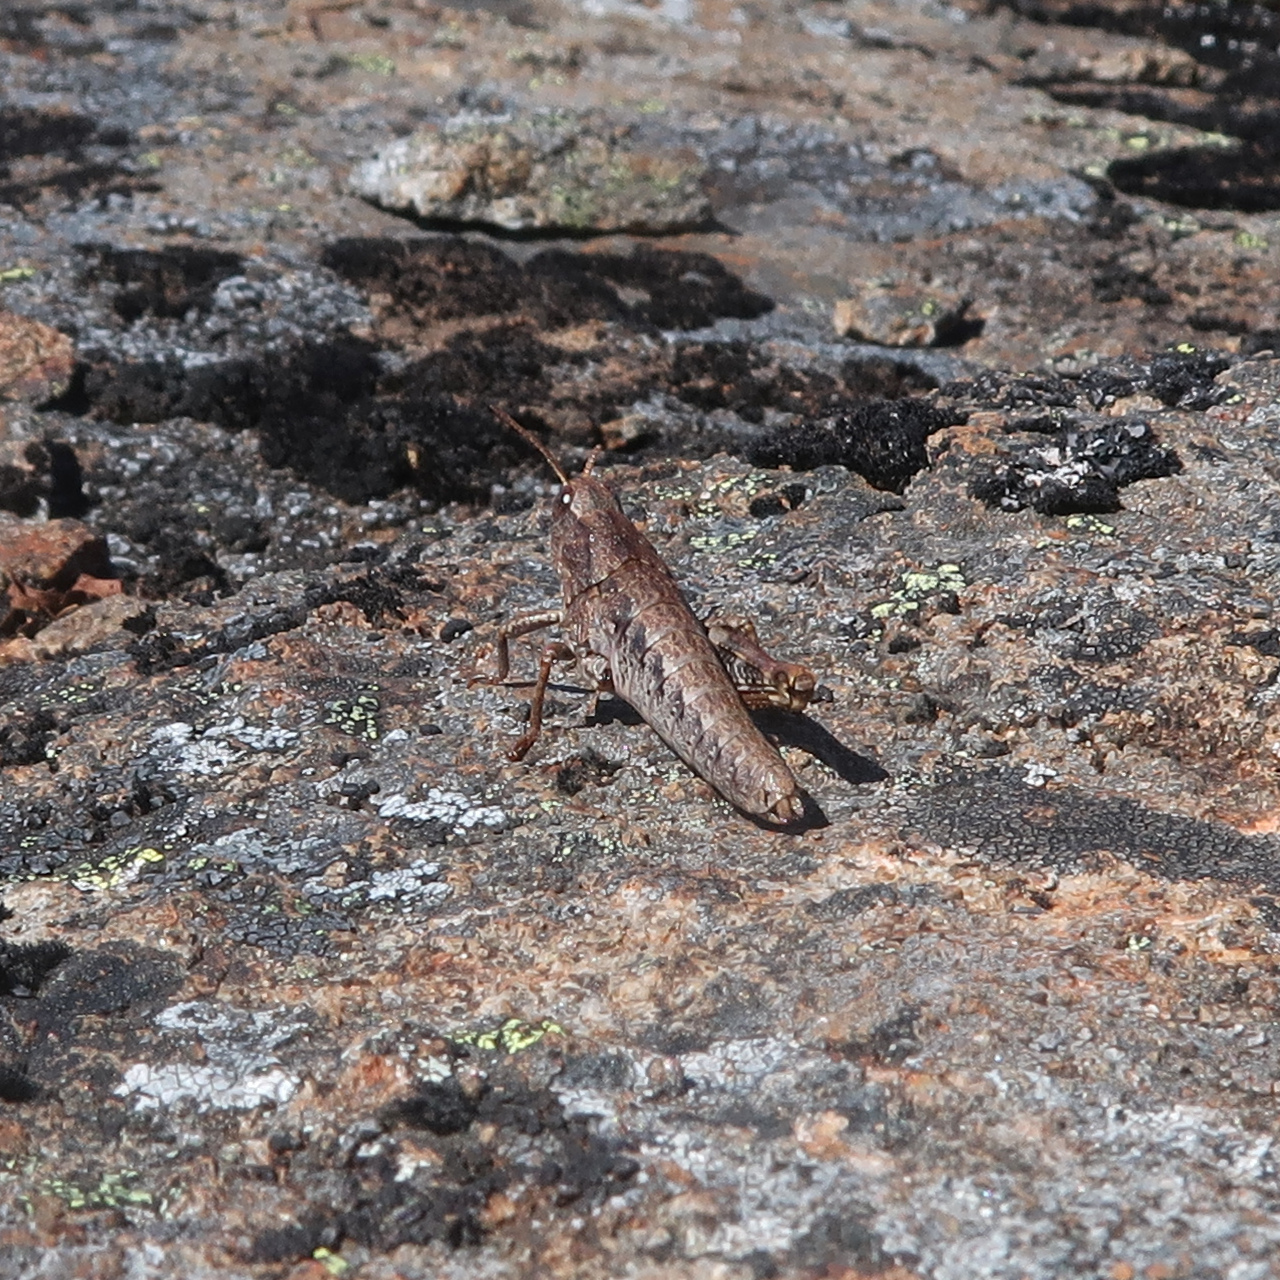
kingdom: Animalia
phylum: Arthropoda
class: Insecta
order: Orthoptera
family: Acrididae
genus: Tasmaniacris
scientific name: Tasmaniacris tasmaniensis
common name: Tasmanian grasshopper
